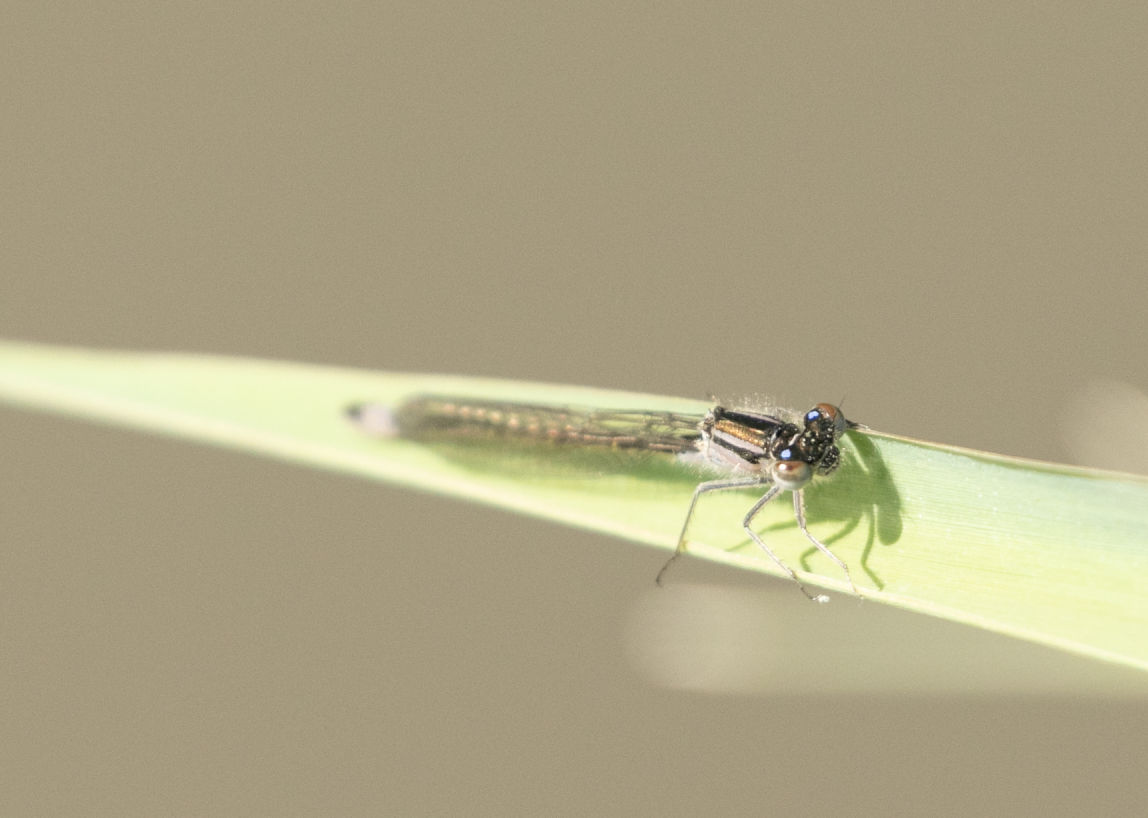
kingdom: Animalia
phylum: Arthropoda
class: Insecta
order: Odonata
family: Coenagrionidae
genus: Ischnura
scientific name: Ischnura elegans
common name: Blue-tailed damselfly
